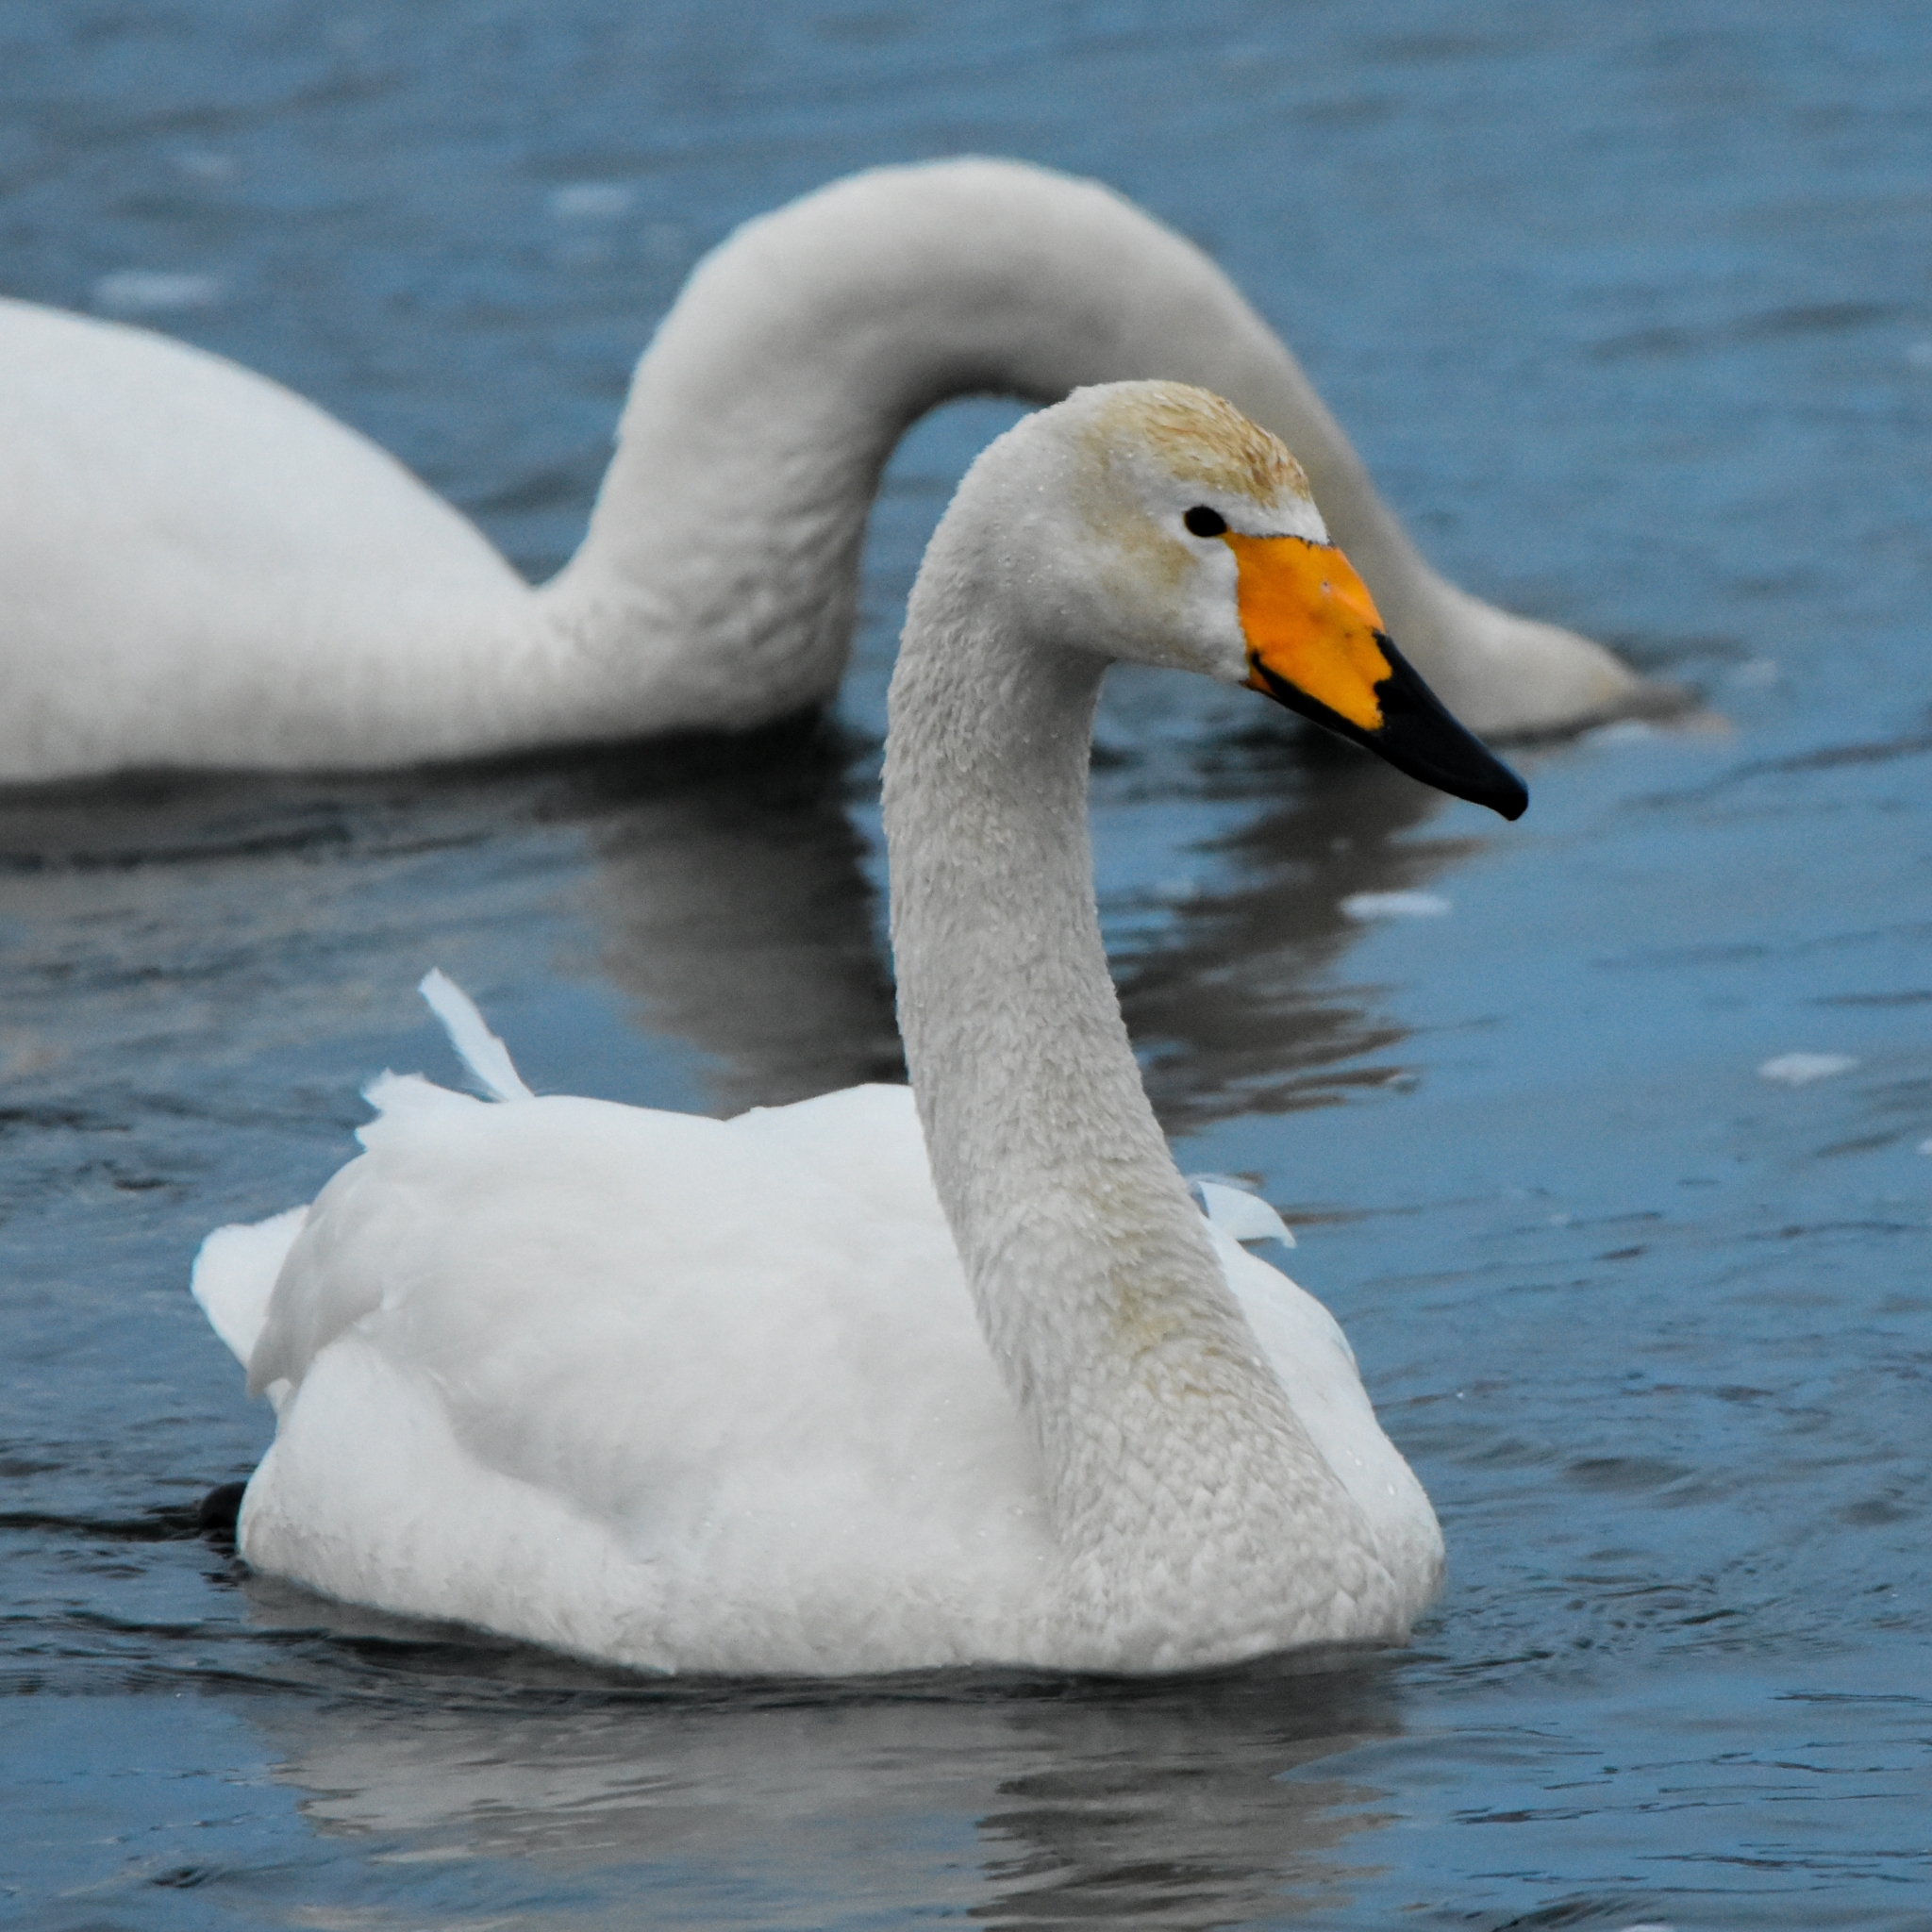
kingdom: Animalia
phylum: Chordata
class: Aves
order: Anseriformes
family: Anatidae
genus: Cygnus
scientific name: Cygnus cygnus
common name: Whooper swan
